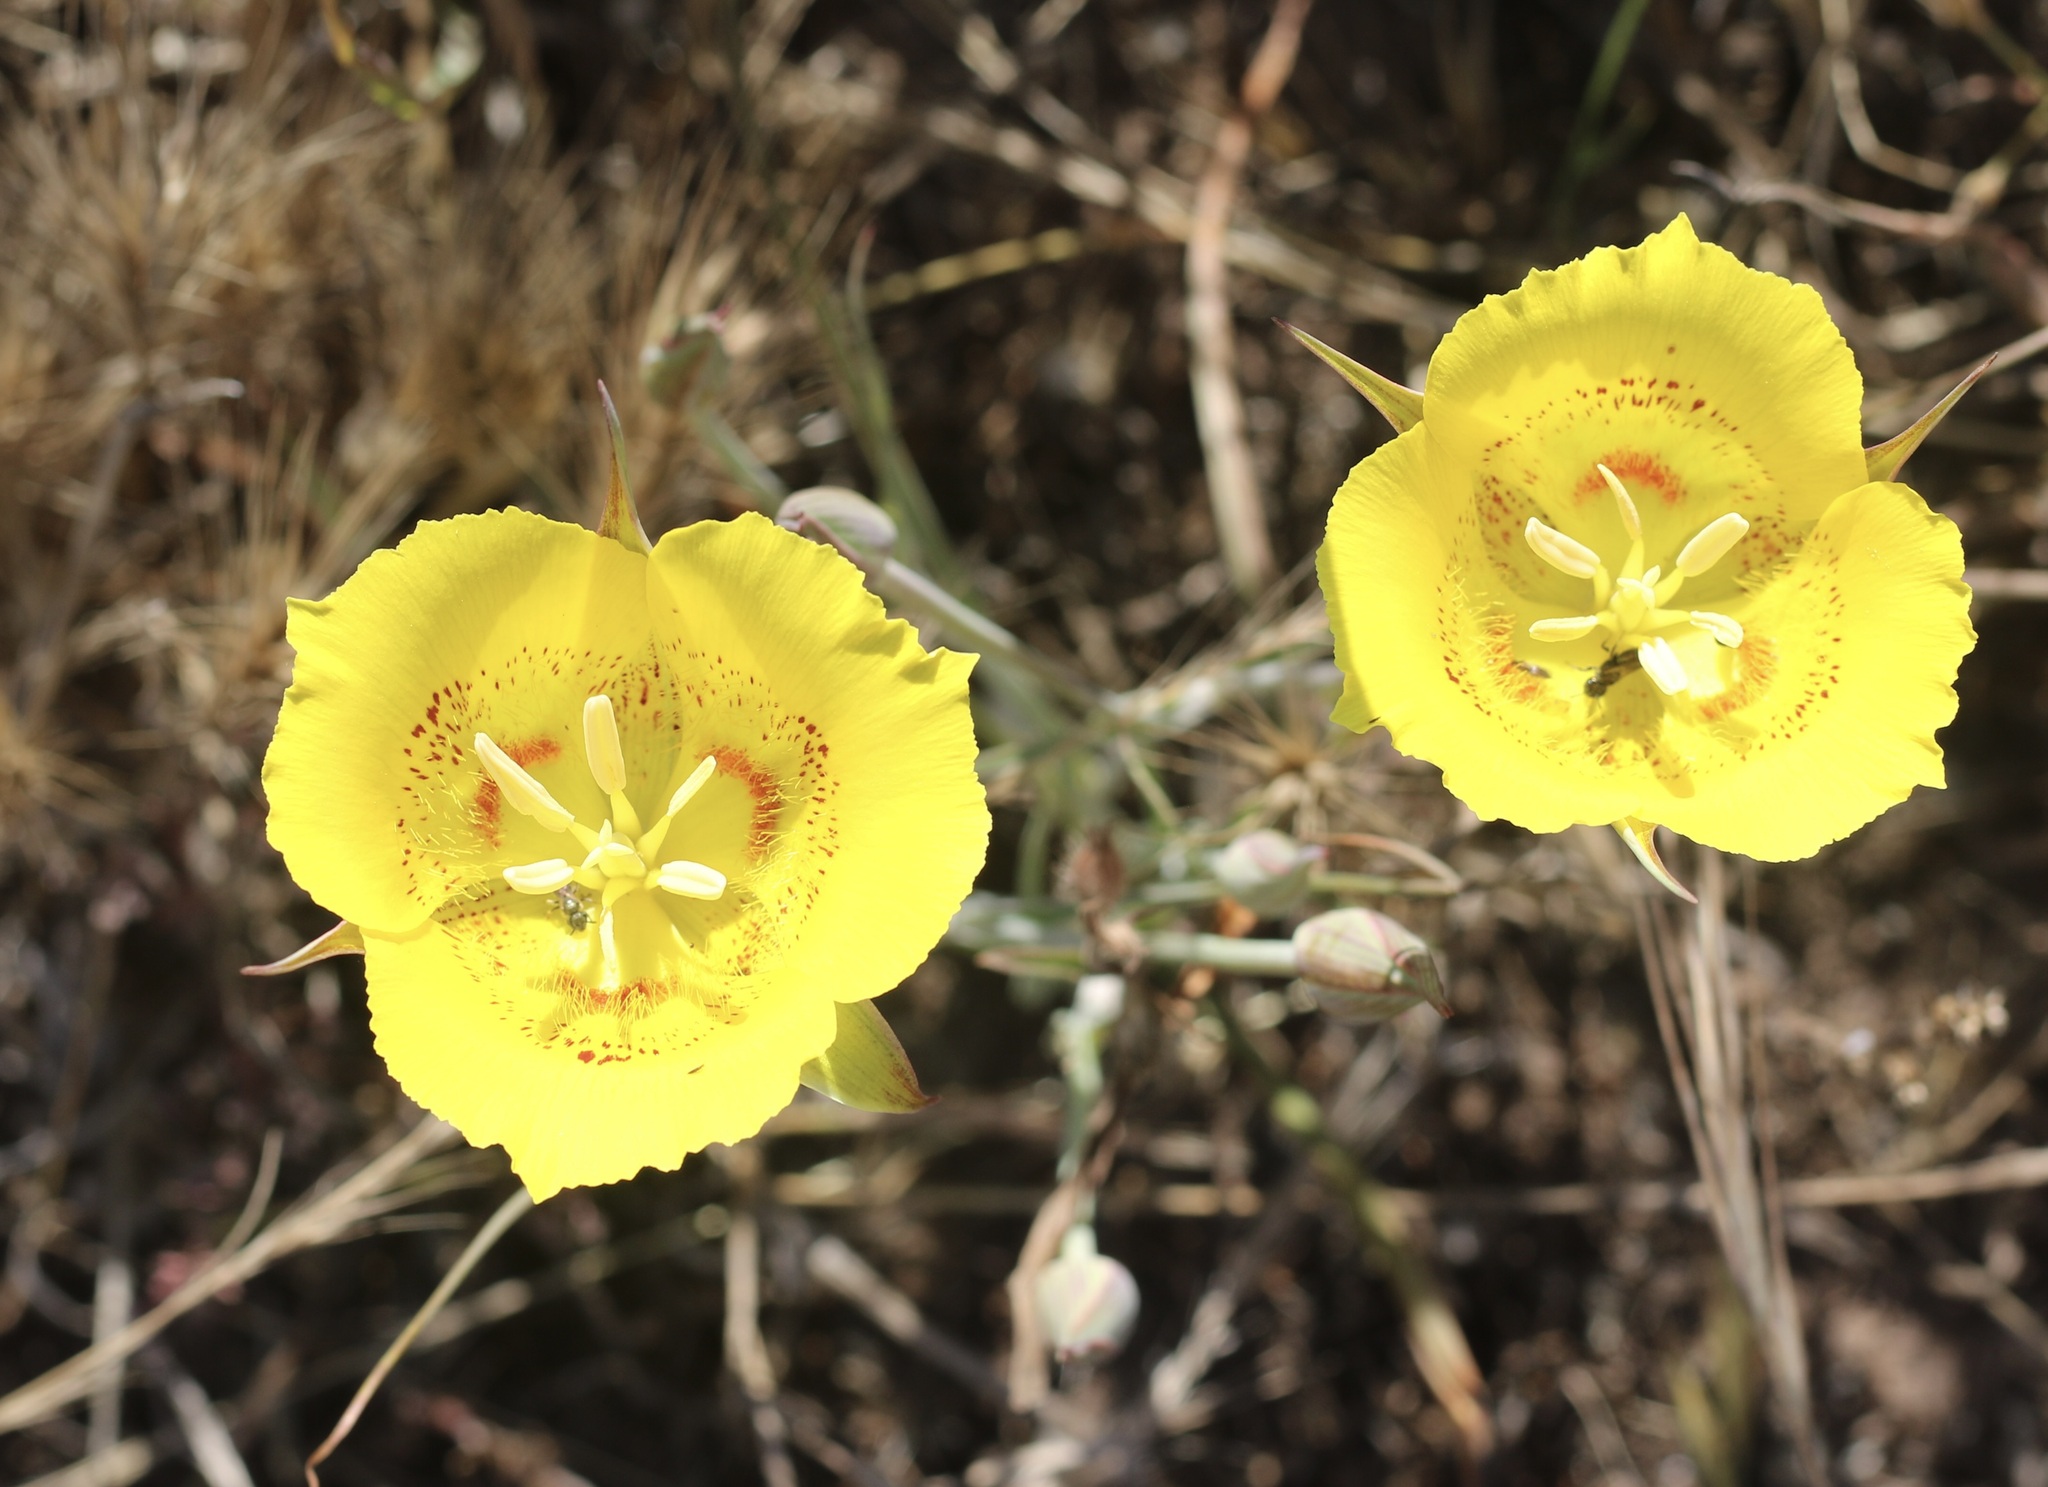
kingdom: Plantae
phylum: Tracheophyta
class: Liliopsida
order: Liliales
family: Liliaceae
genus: Calochortus
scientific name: Calochortus luteus
